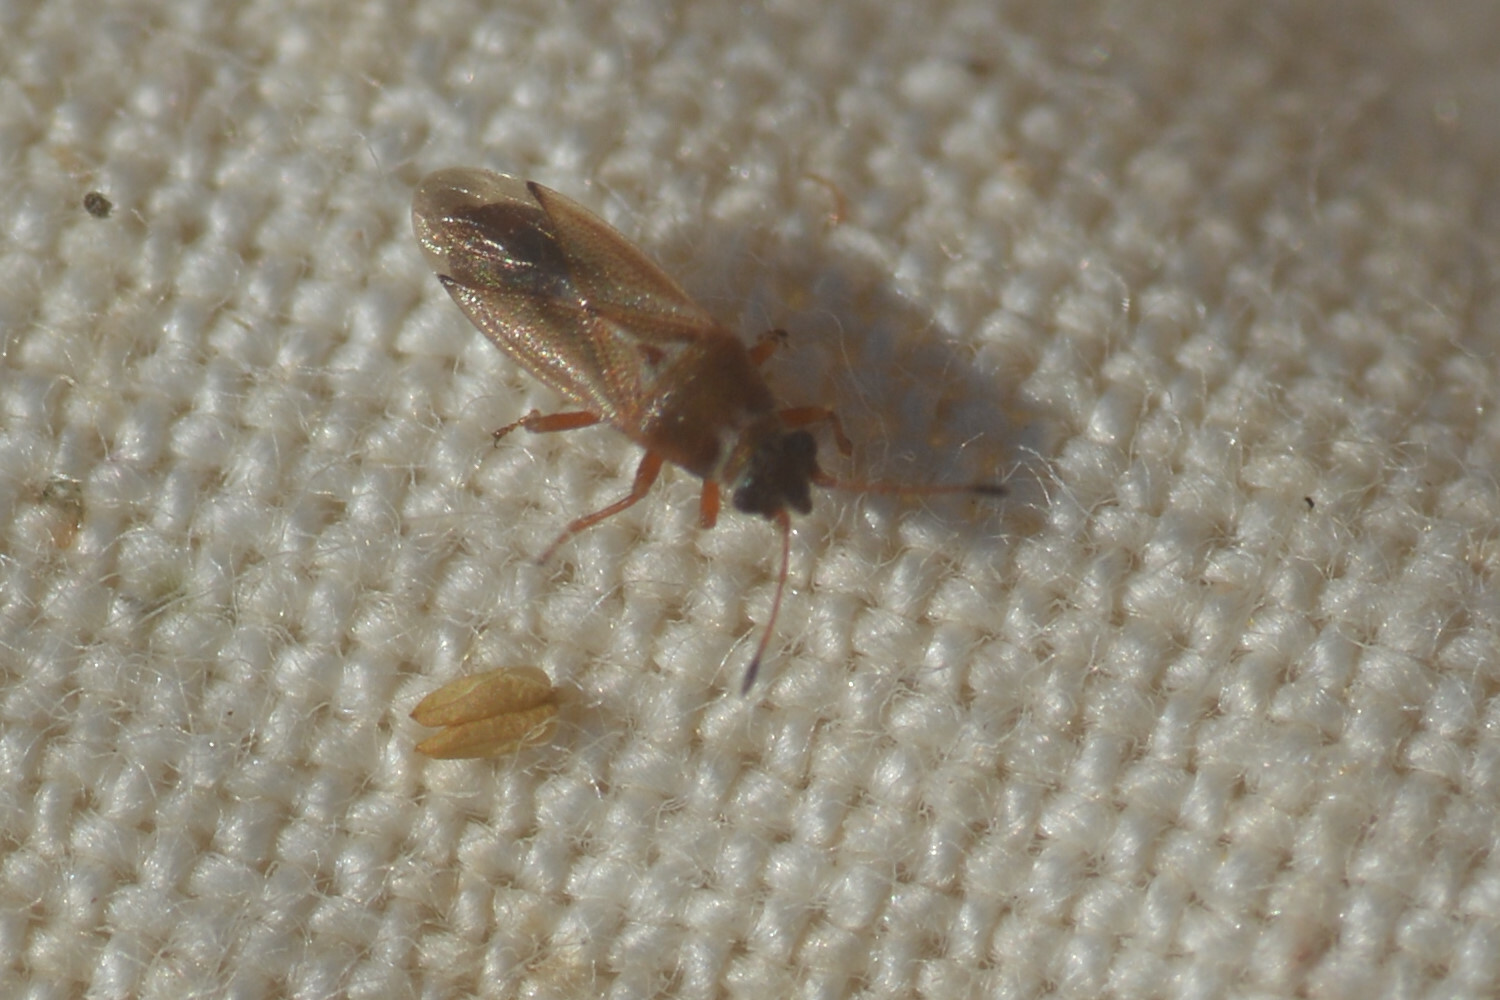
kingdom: Animalia
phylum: Arthropoda
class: Insecta
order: Hemiptera
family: Cymidae
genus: Cymus
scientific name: Cymus melanocephalus
